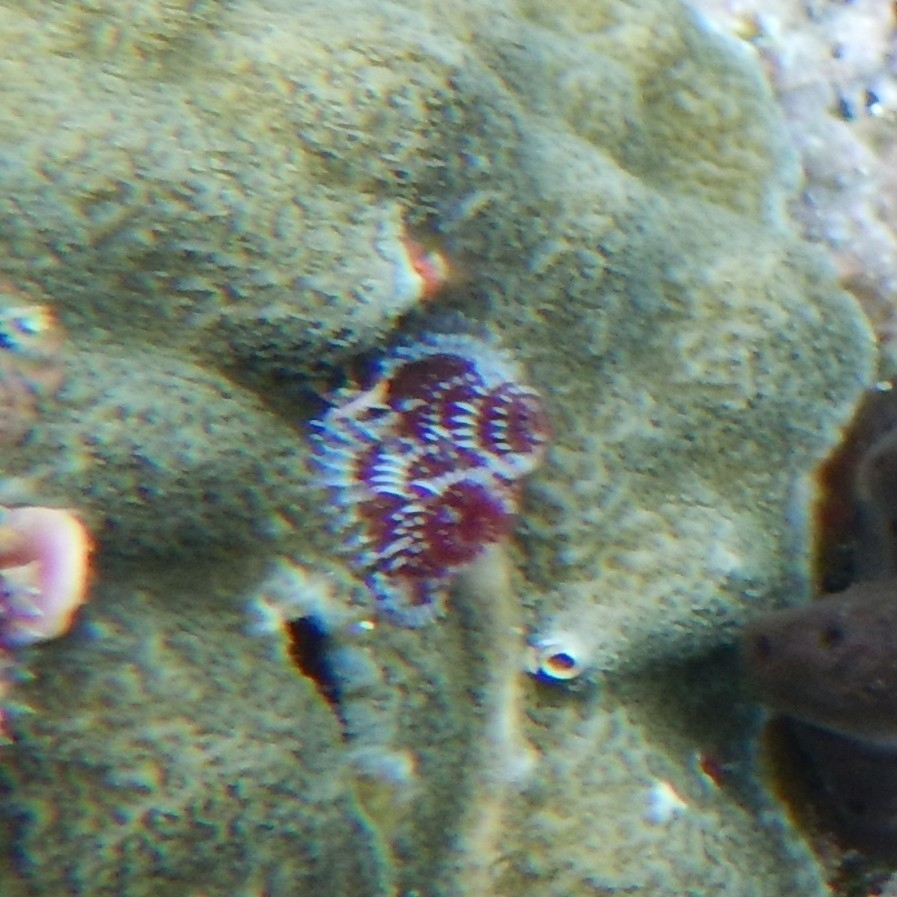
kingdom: Animalia
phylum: Annelida
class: Polychaeta
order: Sabellida
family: Serpulidae
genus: Spirobranchus
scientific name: Spirobranchus giganteus
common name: Christmas tree worm
